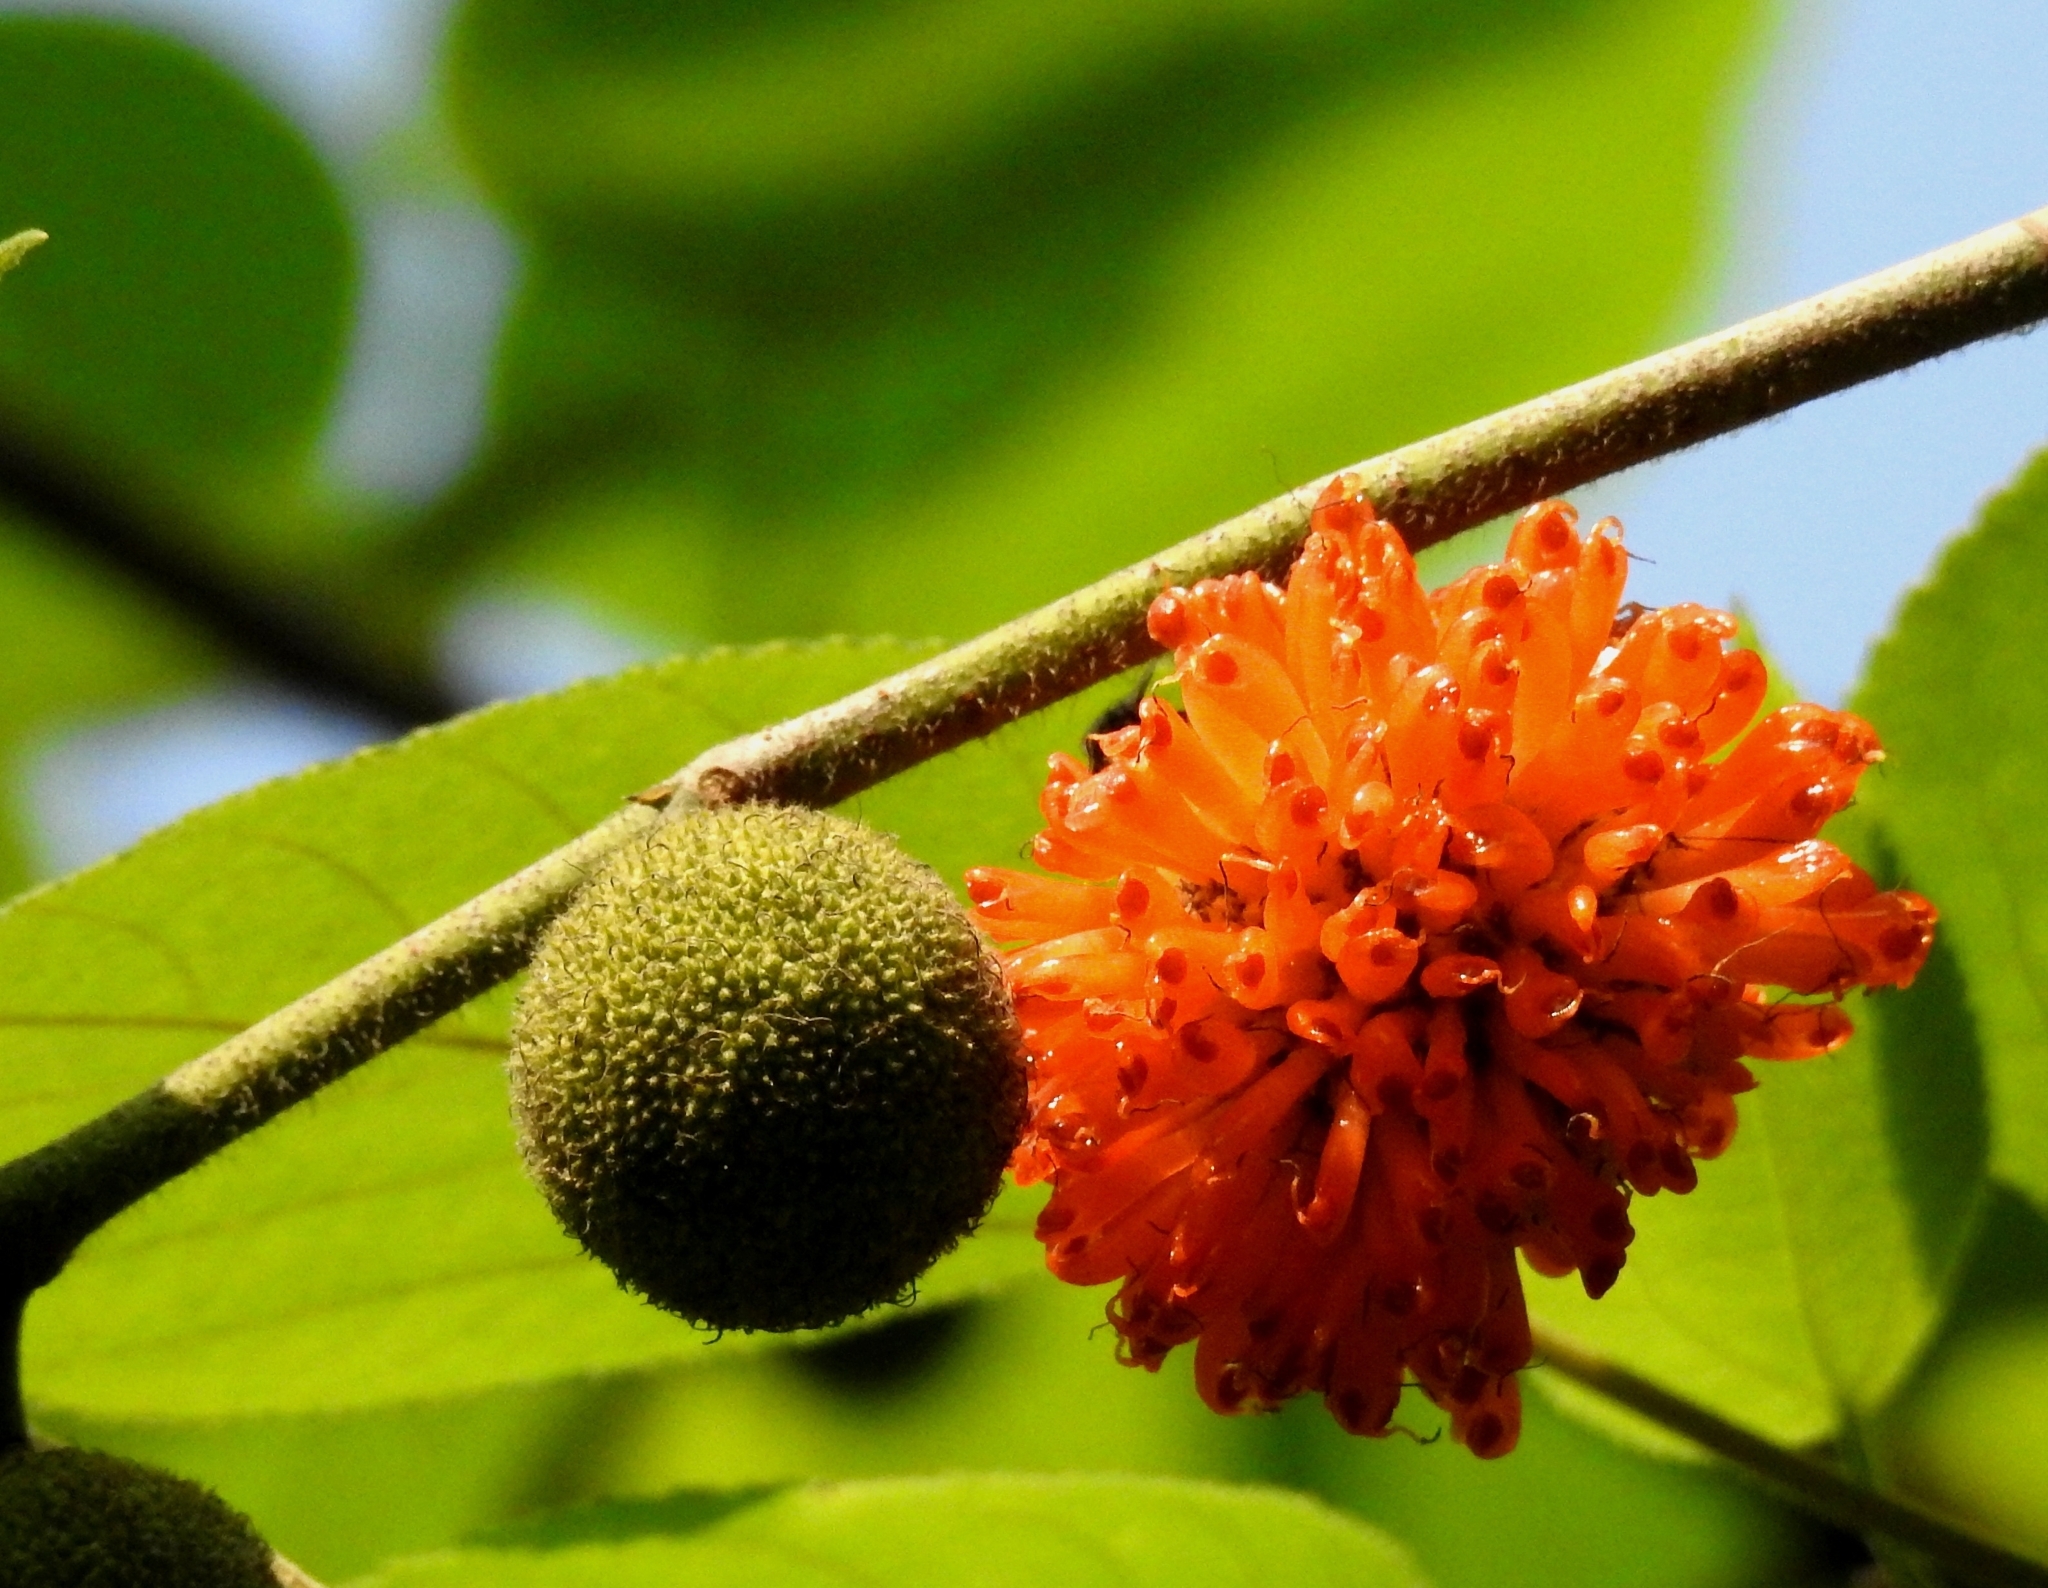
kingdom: Plantae
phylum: Tracheophyta
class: Magnoliopsida
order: Rosales
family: Moraceae
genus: Broussonetia
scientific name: Broussonetia papyrifera
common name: Paper mulberry
